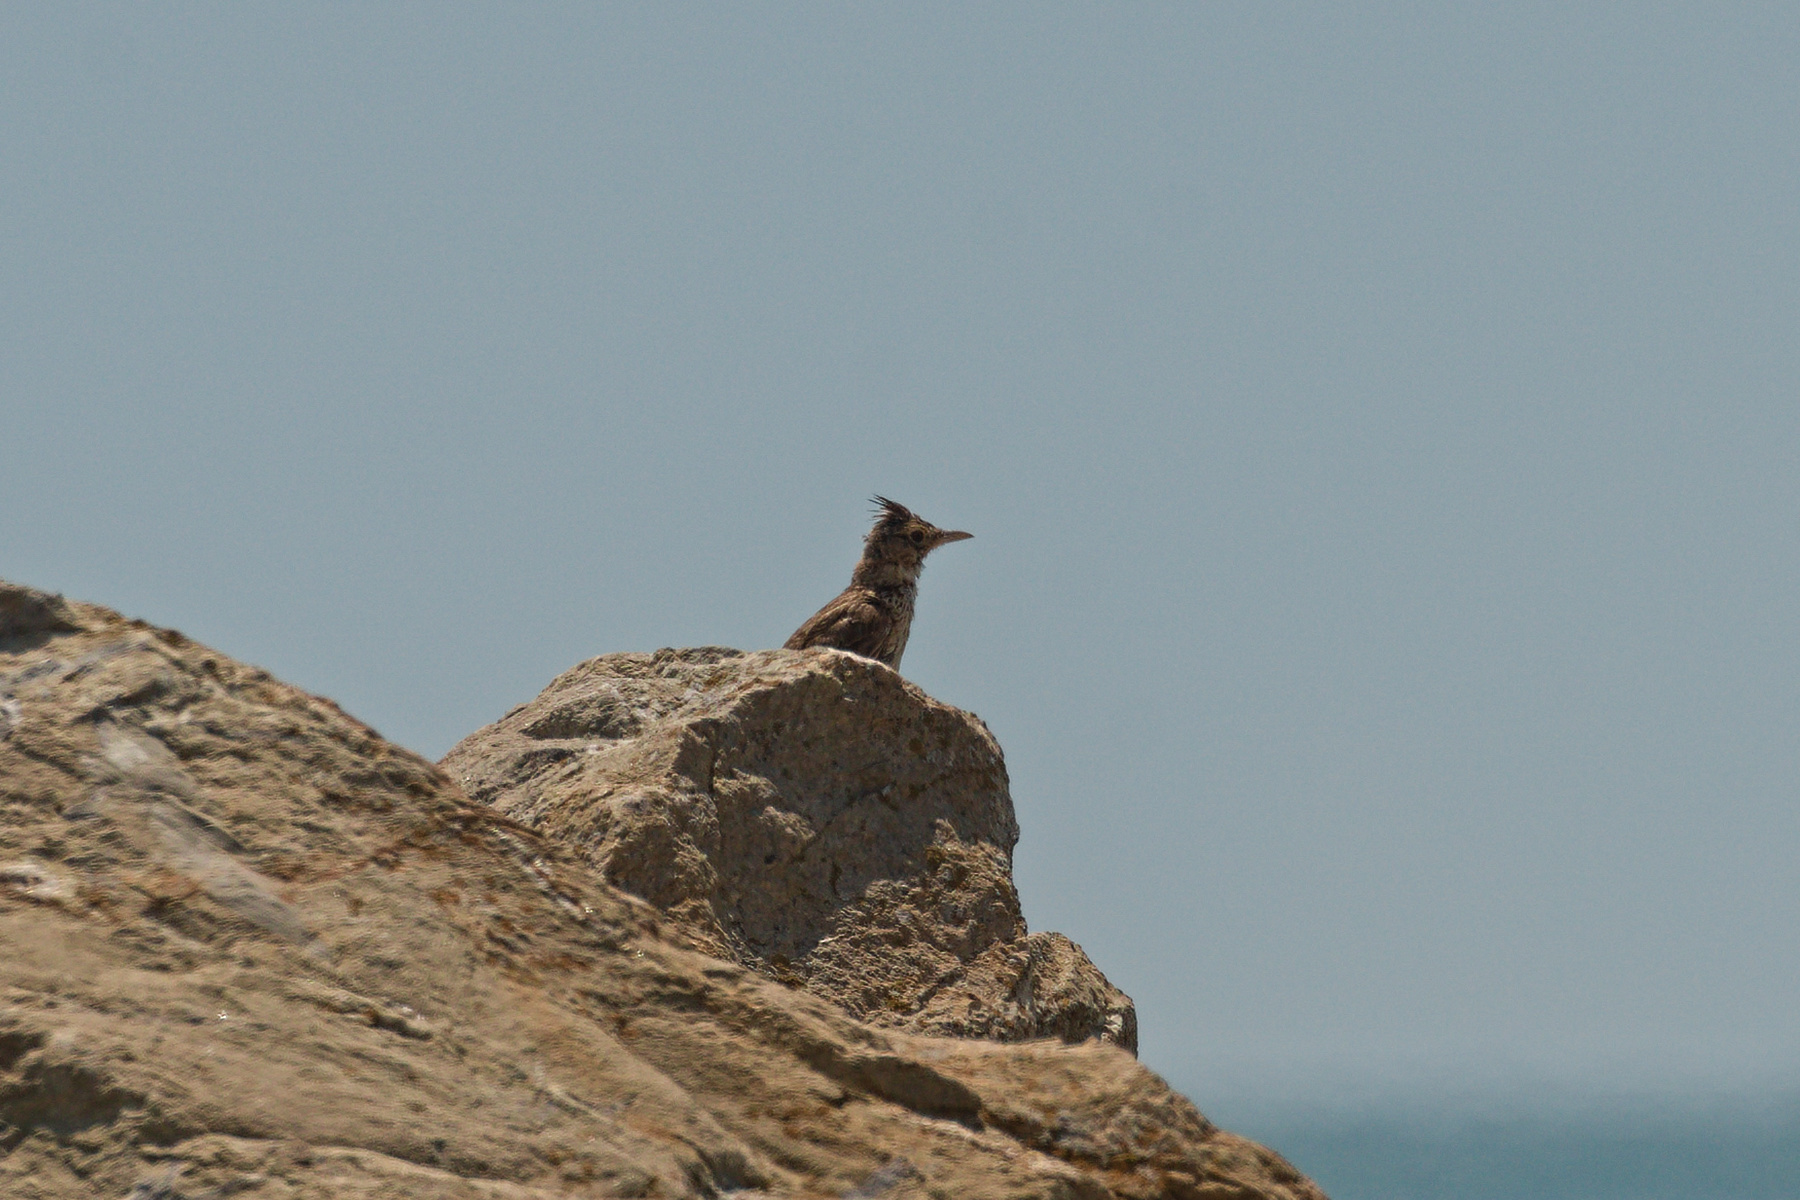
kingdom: Animalia
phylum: Chordata
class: Aves
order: Passeriformes
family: Alaudidae
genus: Galerida
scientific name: Galerida cristata
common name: Crested lark
